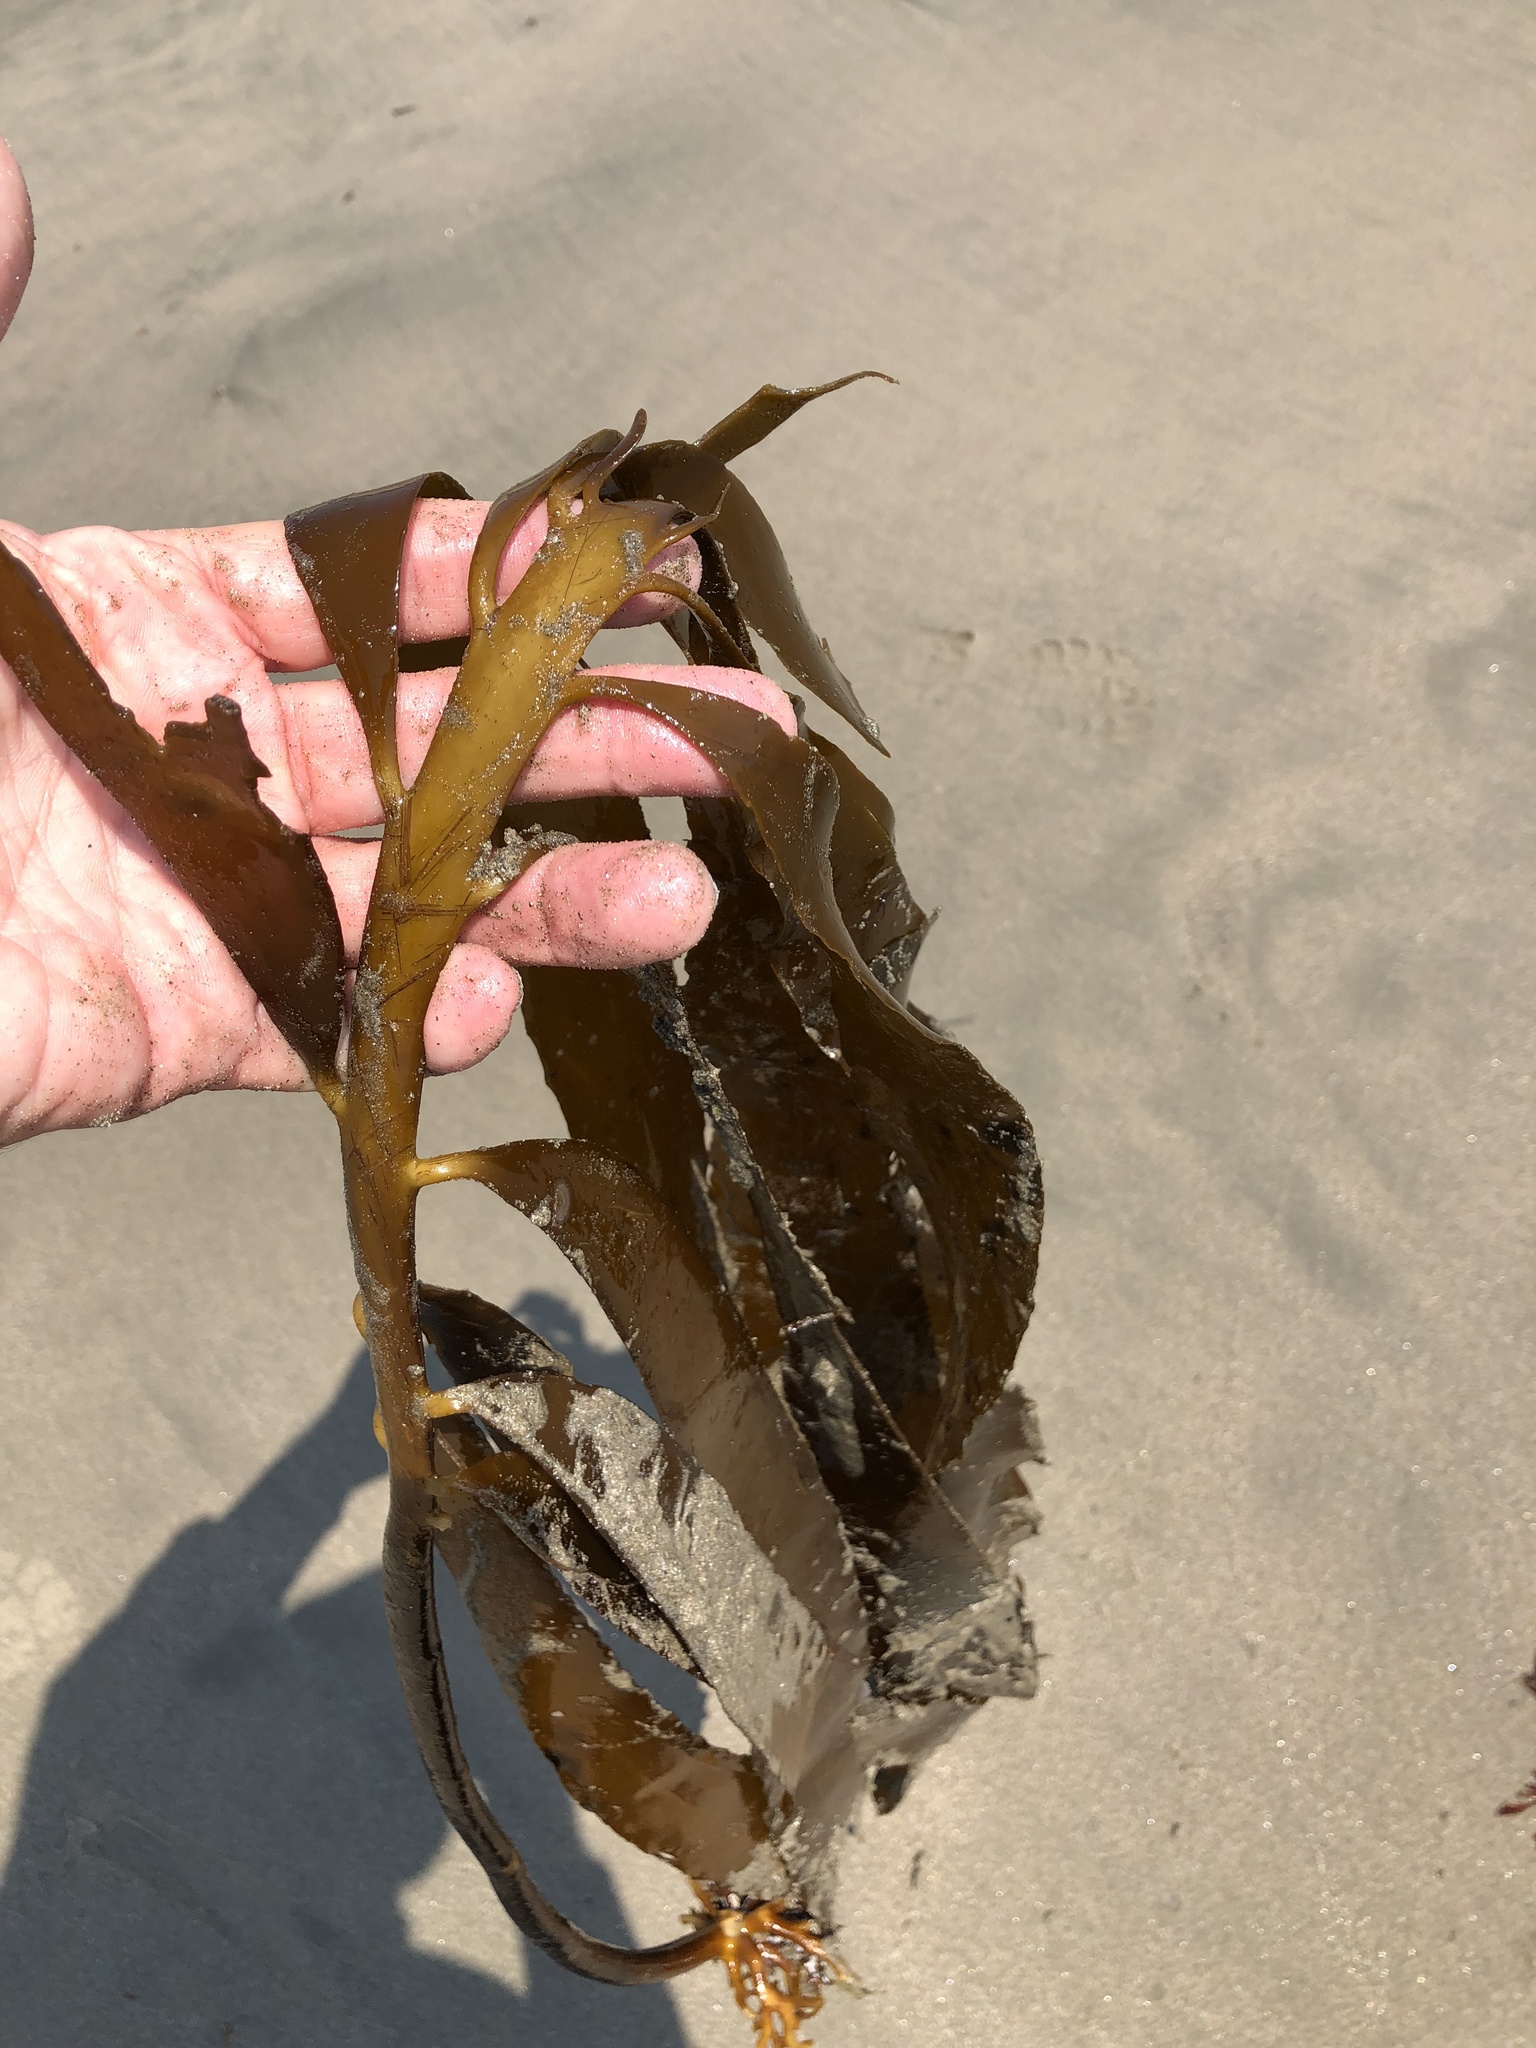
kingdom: Chromista
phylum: Ochrophyta
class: Phaeophyceae
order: Laminariales
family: Alariaceae
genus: Pterygophora
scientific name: Pterygophora californica
